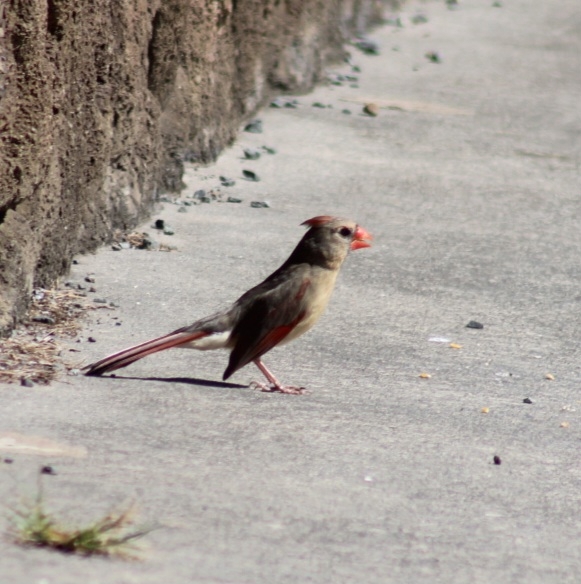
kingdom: Animalia
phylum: Chordata
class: Aves
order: Passeriformes
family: Cardinalidae
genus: Cardinalis
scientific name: Cardinalis cardinalis
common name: Northern cardinal
